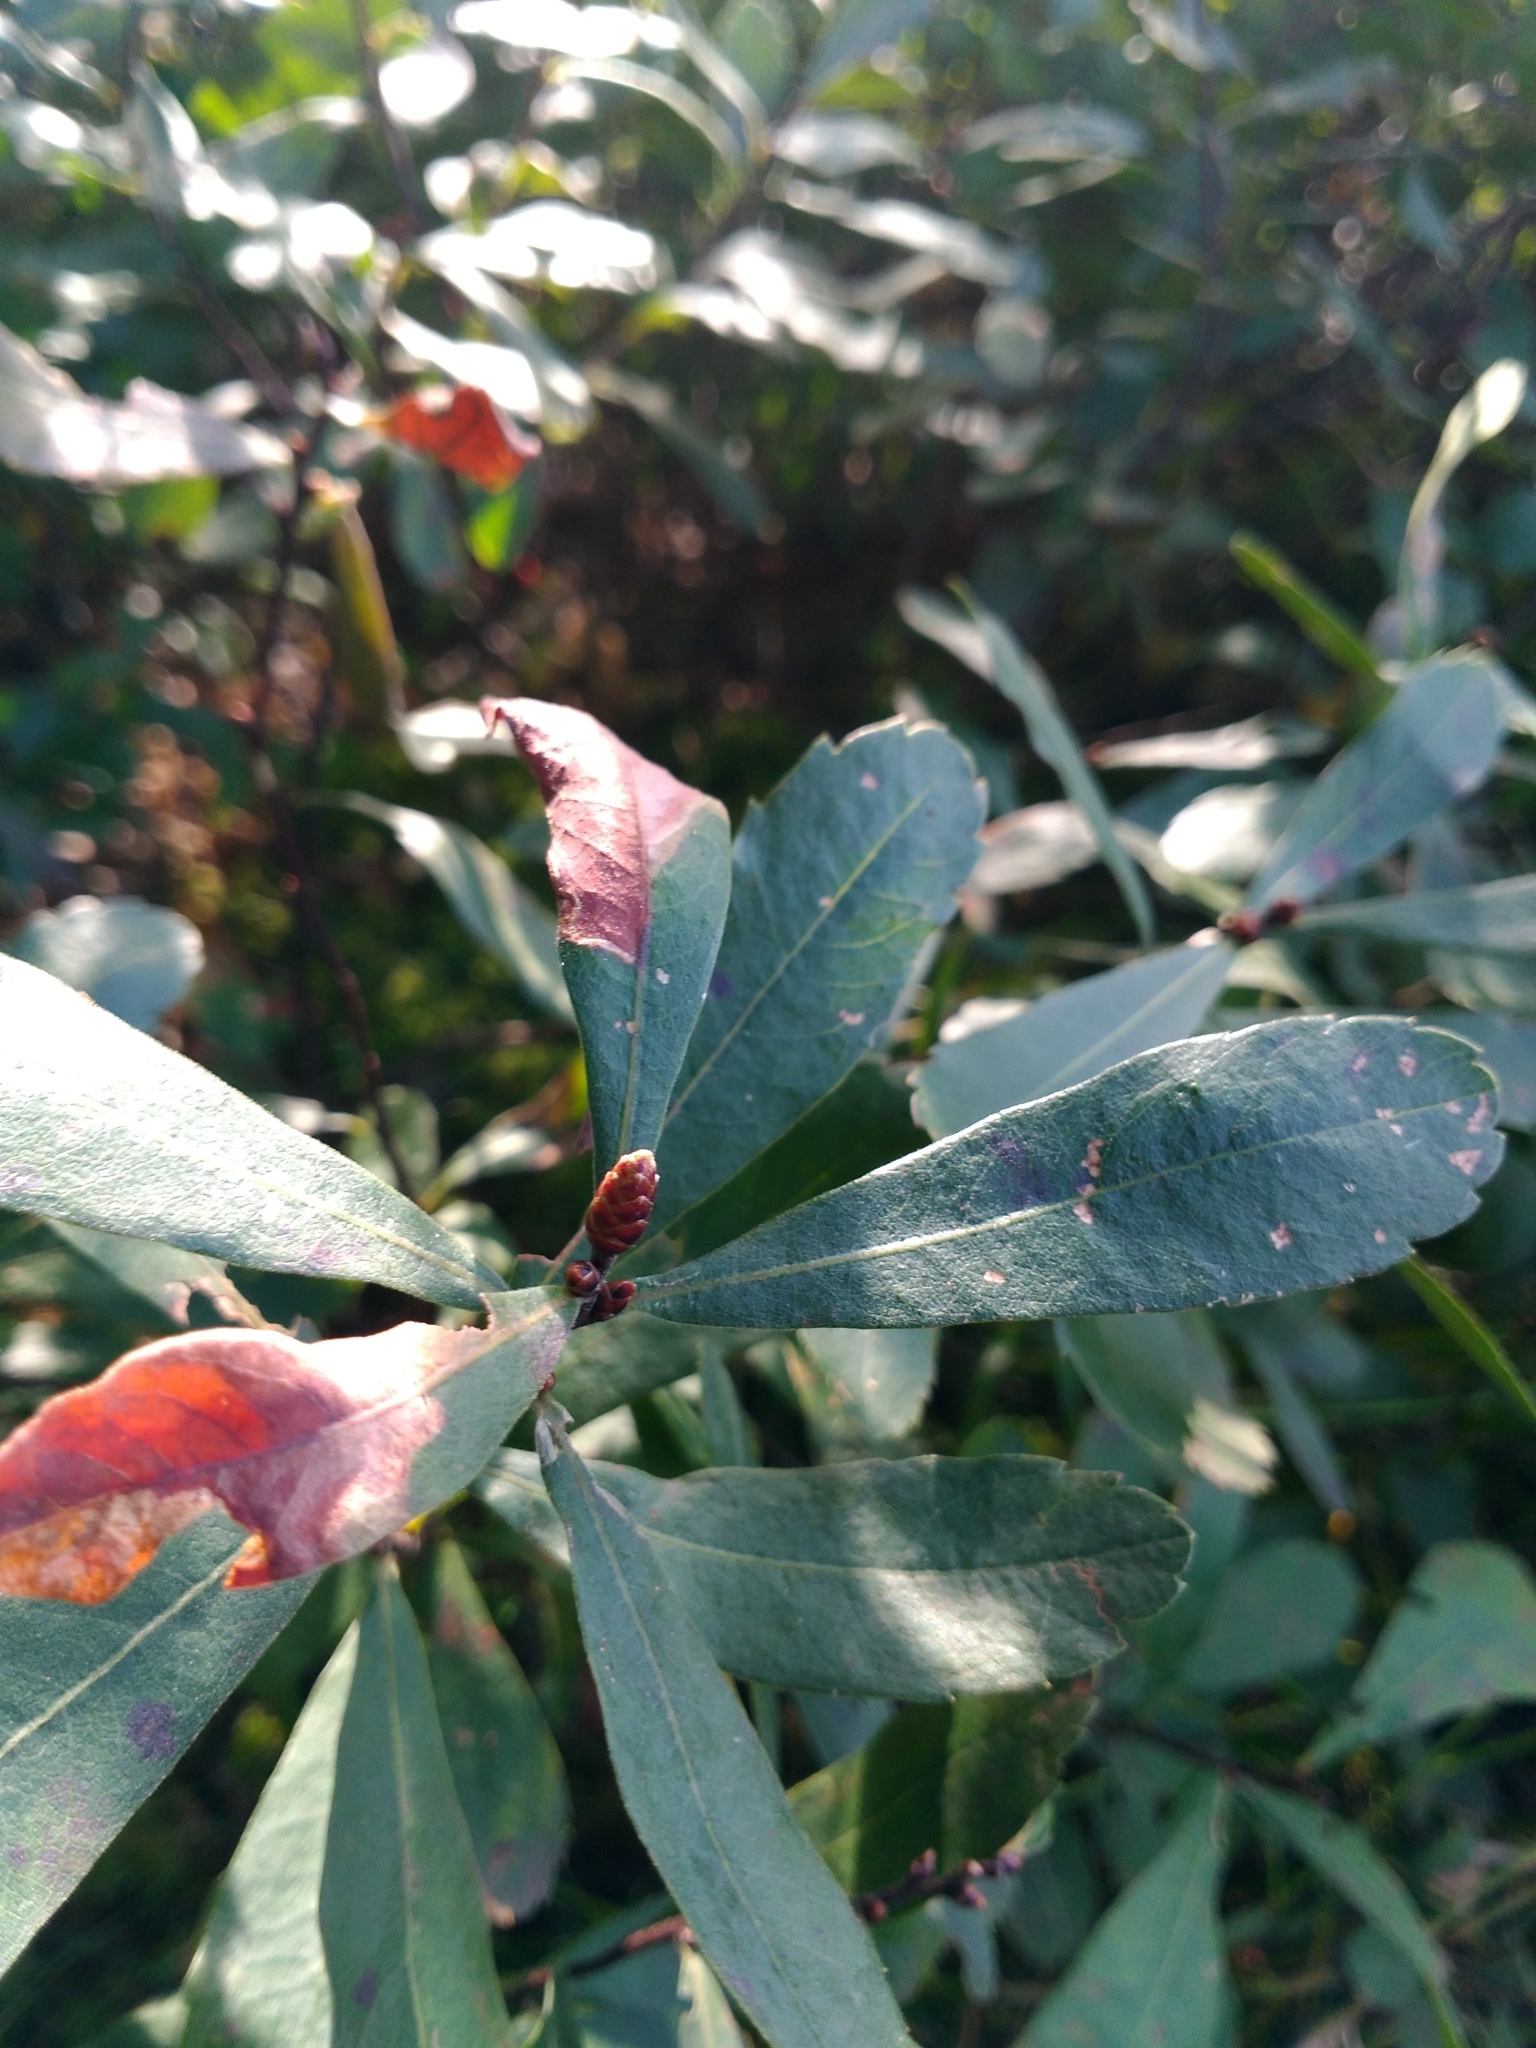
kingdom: Plantae
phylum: Tracheophyta
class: Magnoliopsida
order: Fagales
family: Myricaceae
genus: Myrica
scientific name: Myrica gale
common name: Sweet gale
